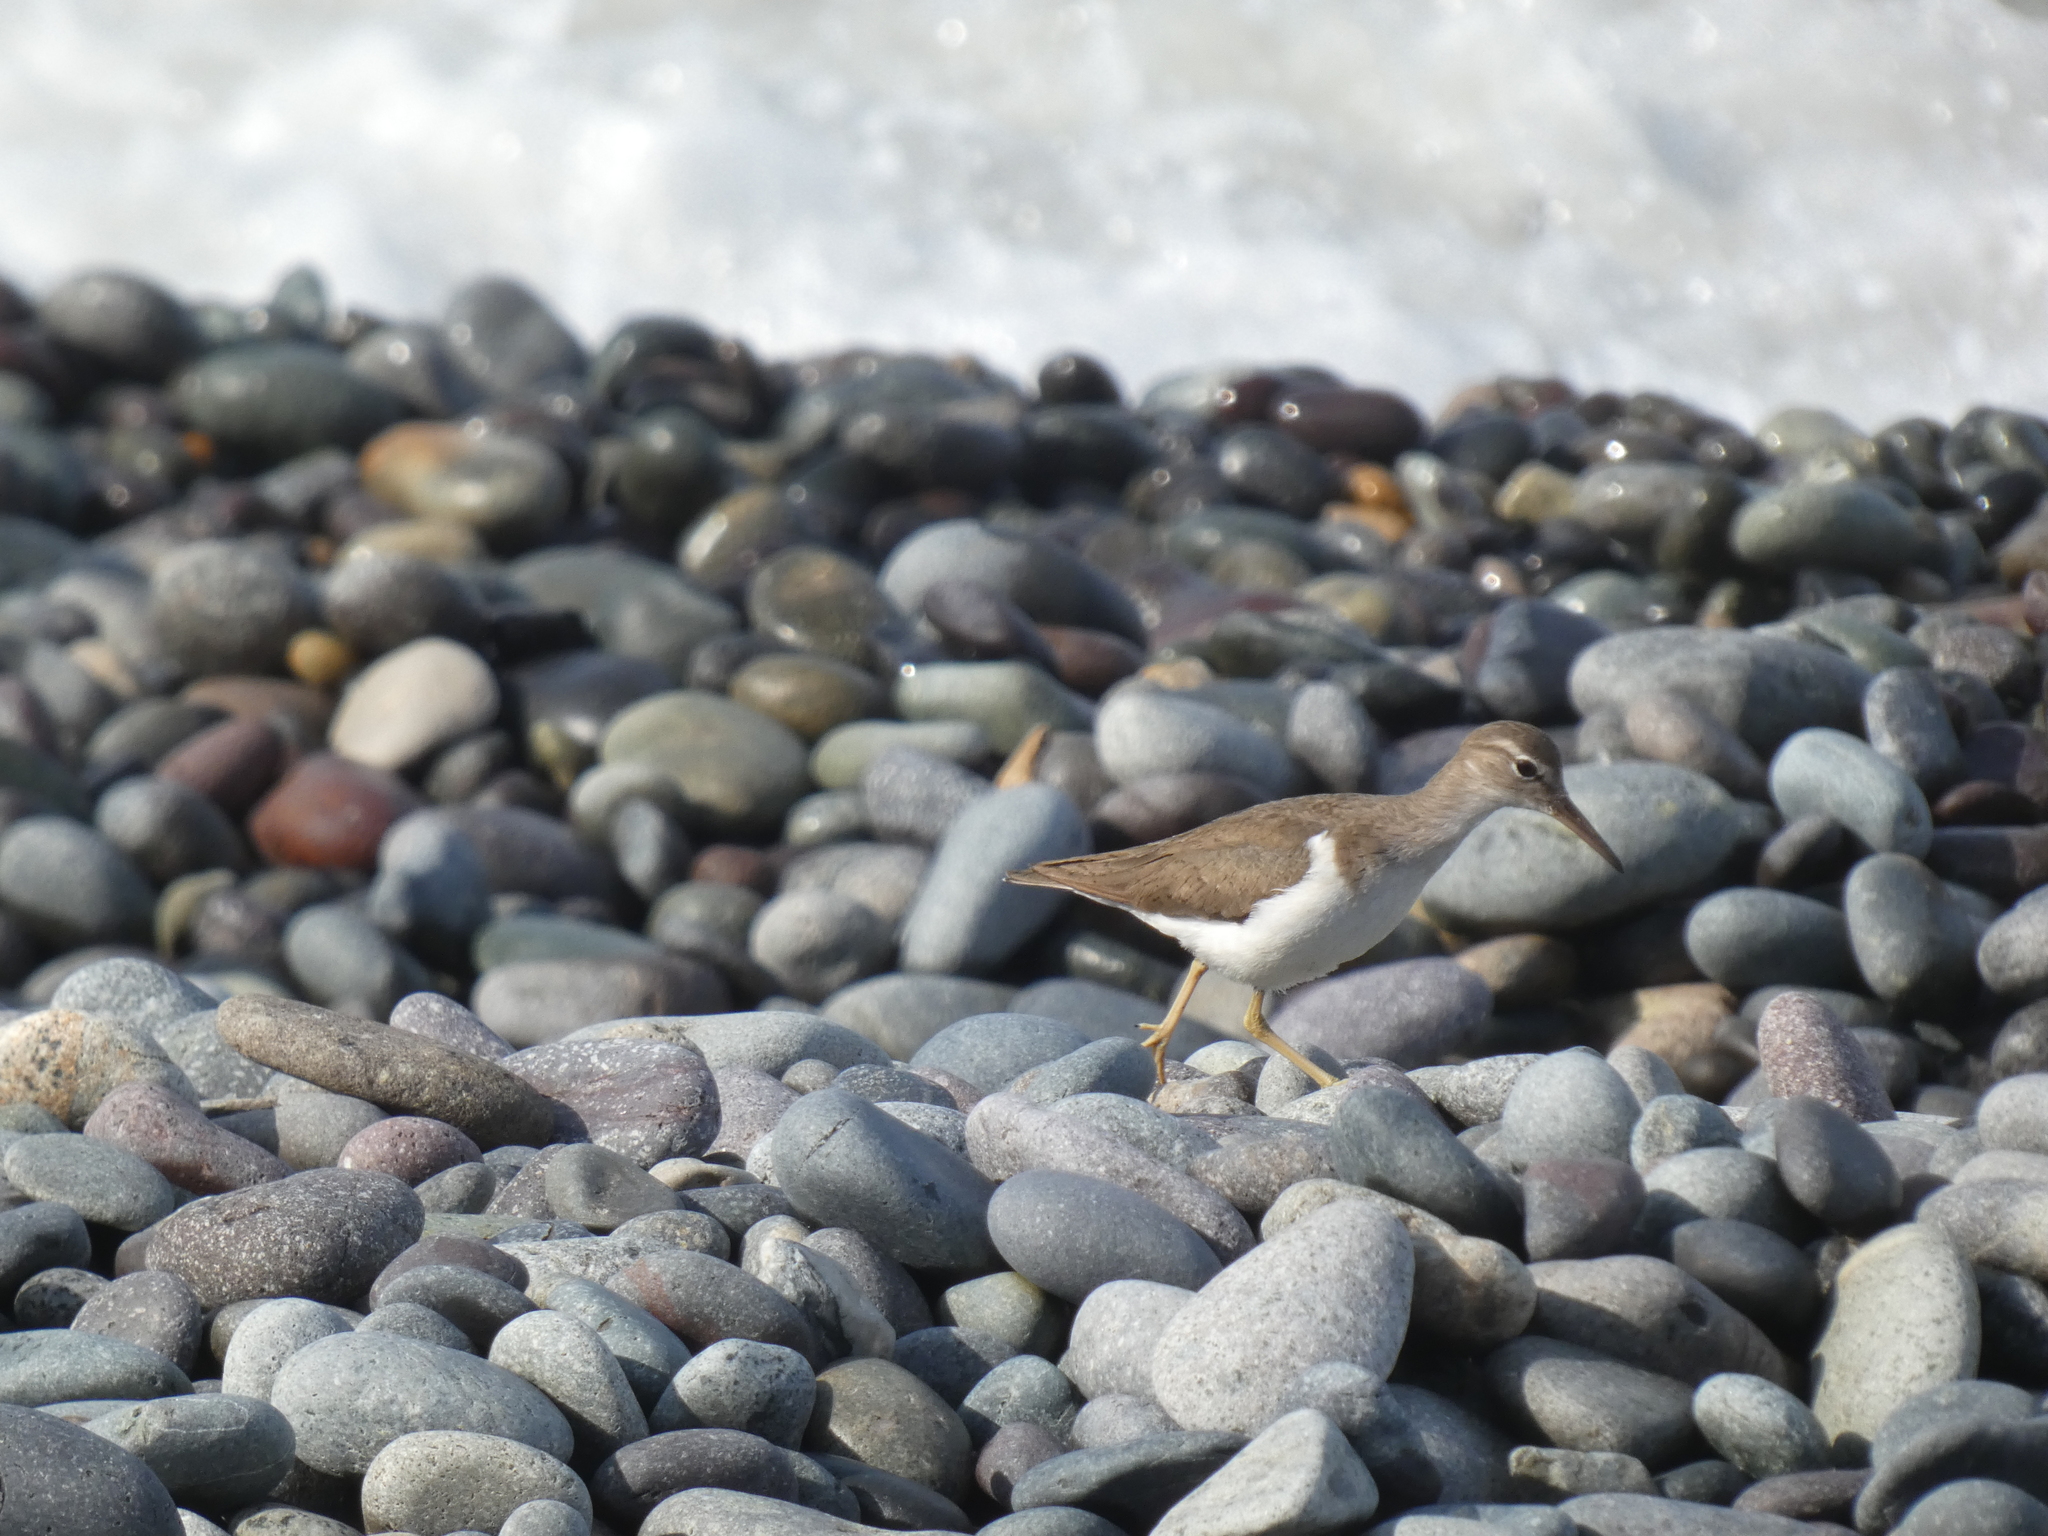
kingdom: Animalia
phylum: Chordata
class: Aves
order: Charadriiformes
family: Scolopacidae
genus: Actitis
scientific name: Actitis macularius
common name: Spotted sandpiper
